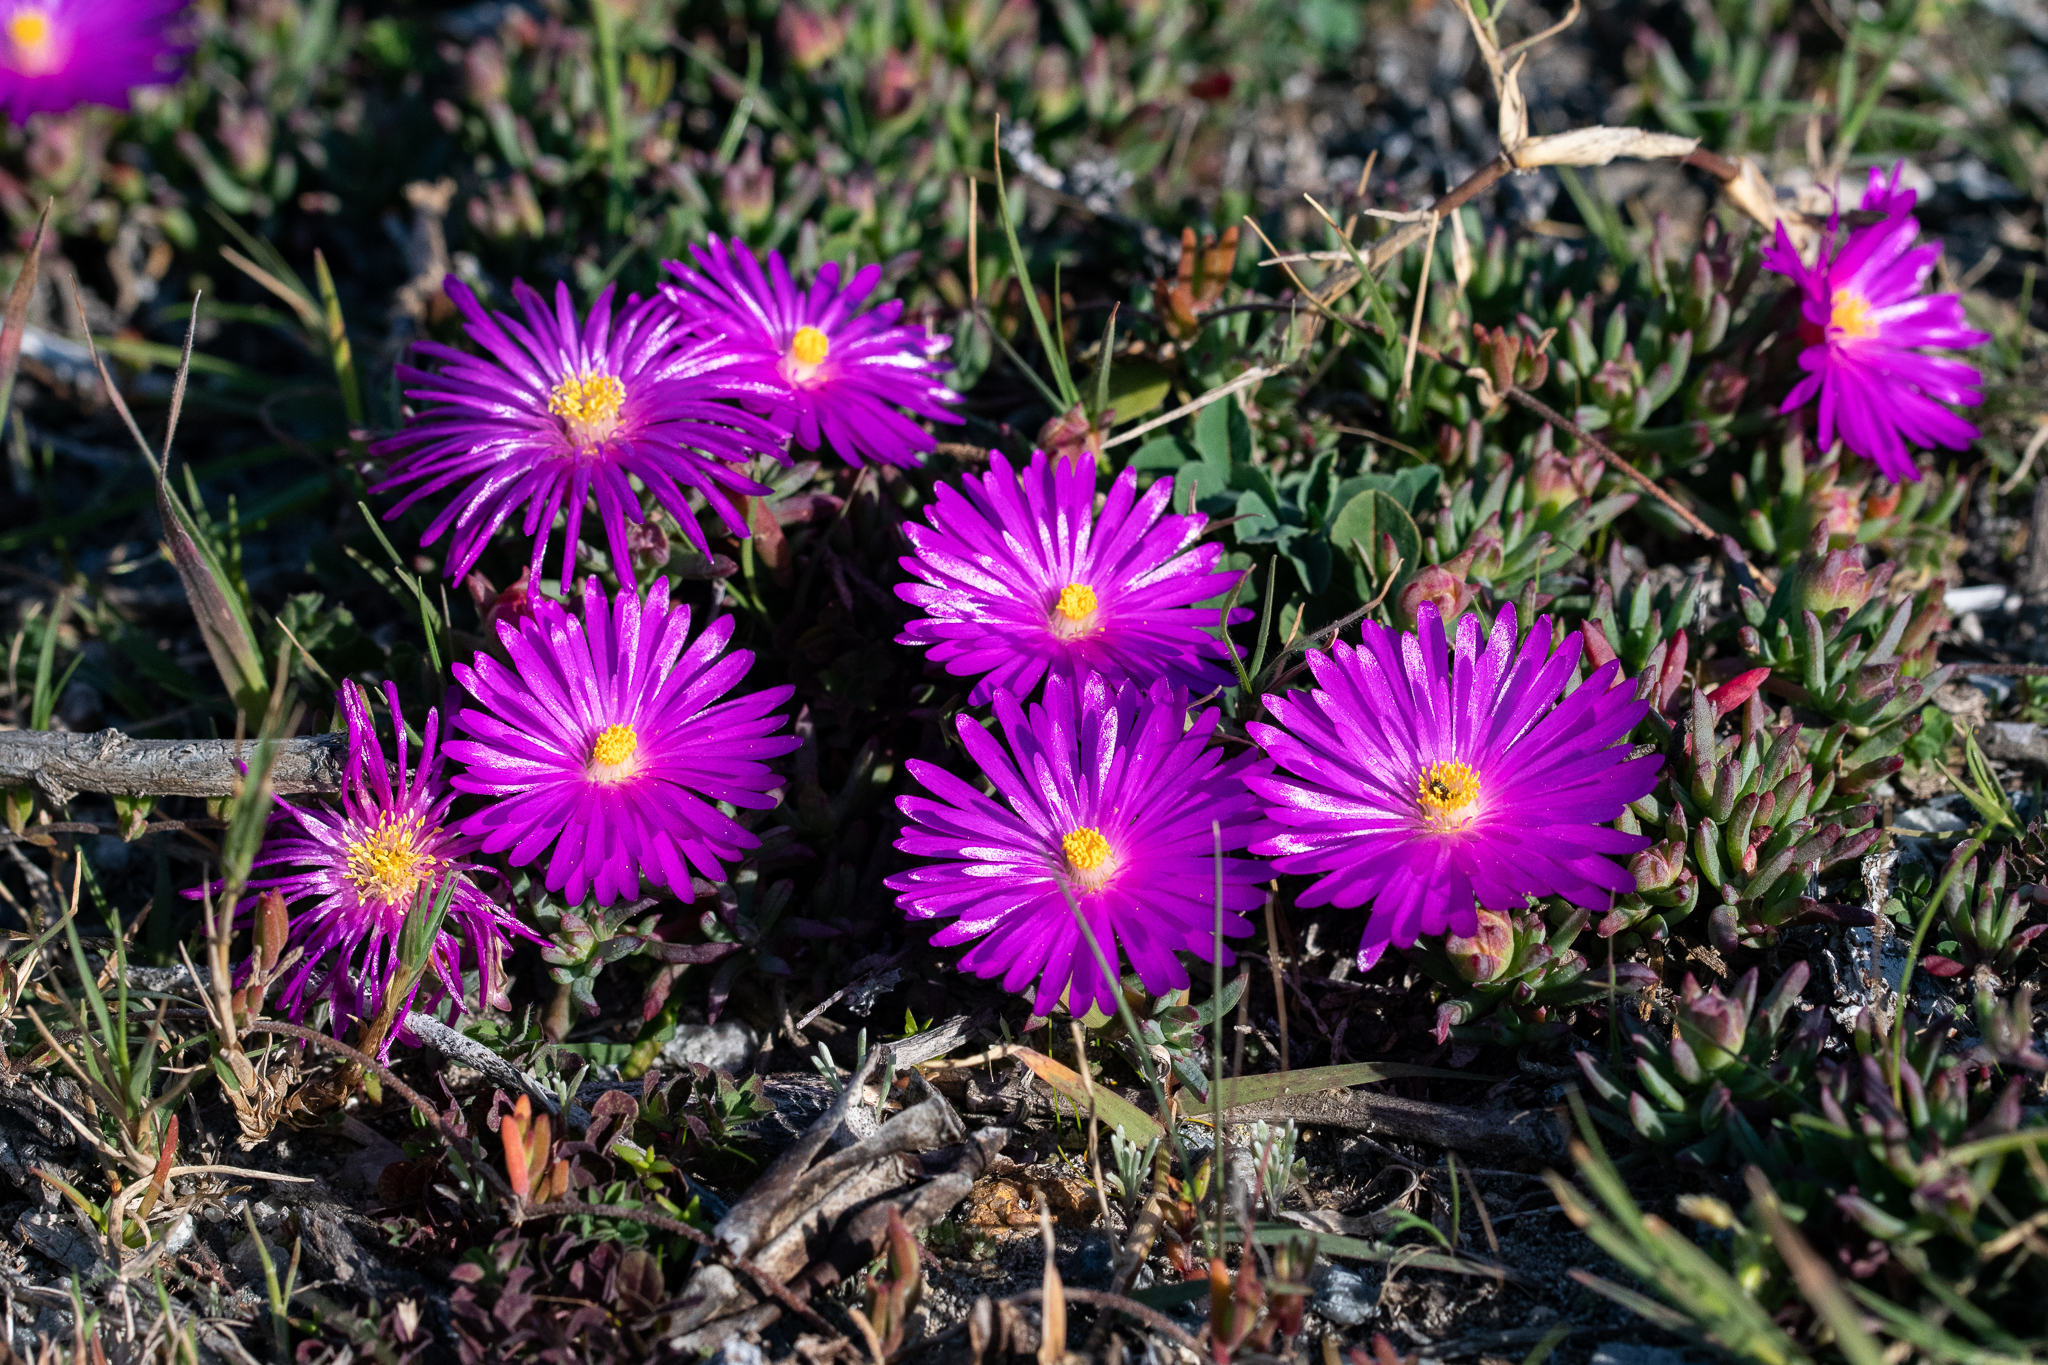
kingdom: Plantae
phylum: Tracheophyta
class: Magnoliopsida
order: Caryophyllales
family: Aizoaceae
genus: Lampranthus
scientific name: Lampranthus ceriseus
